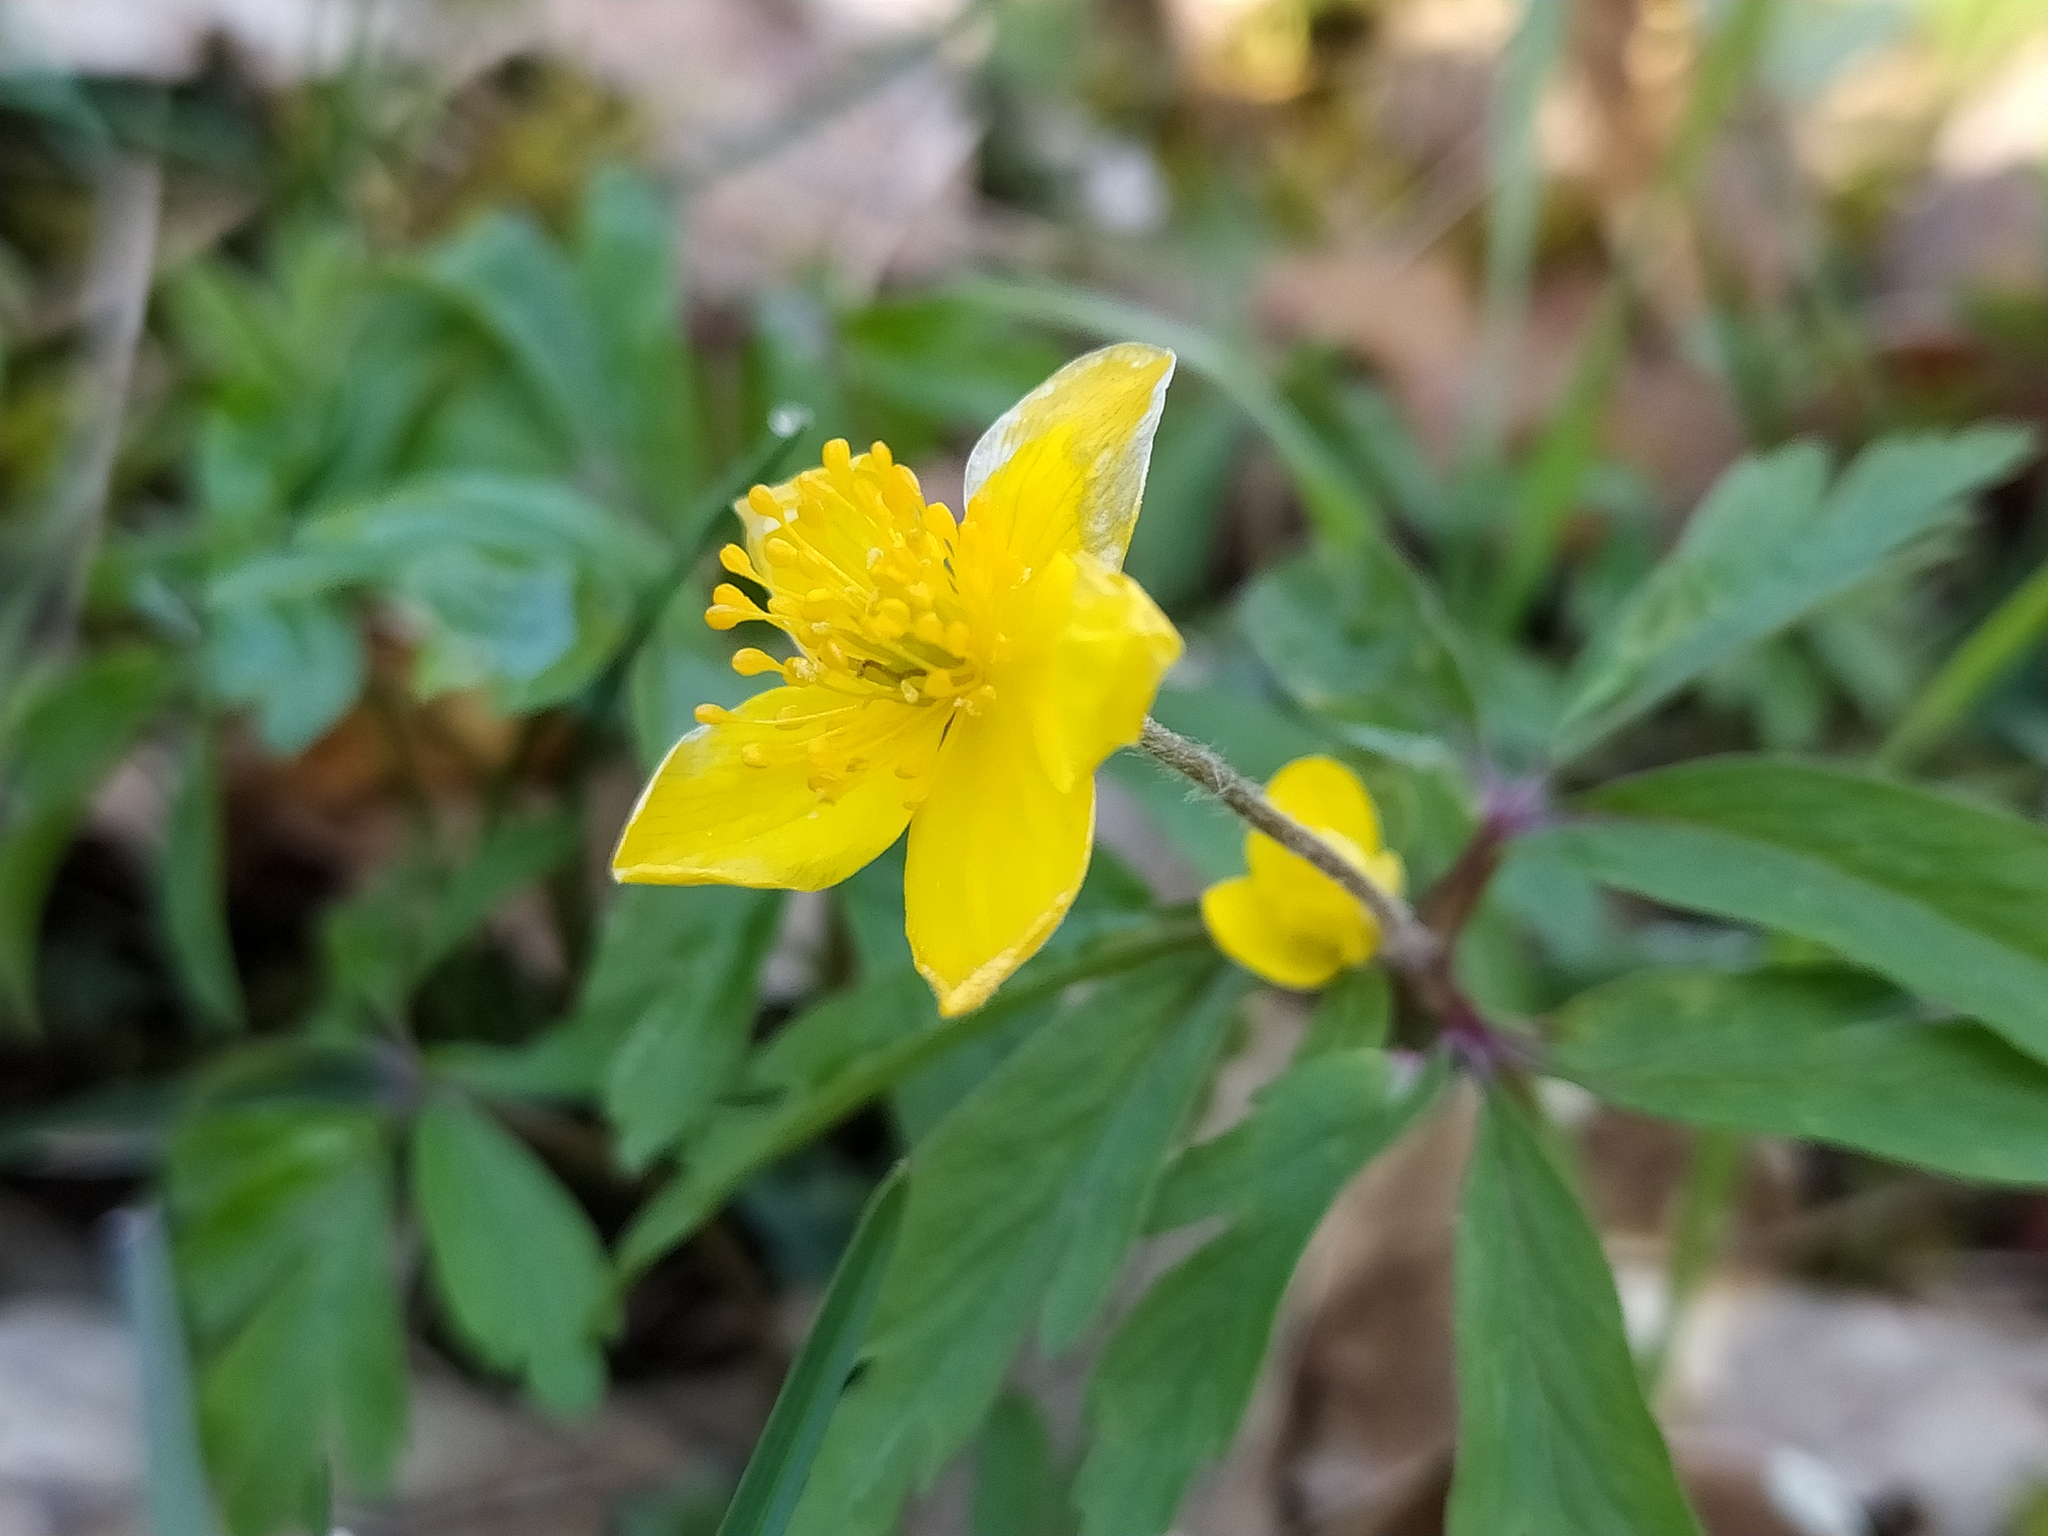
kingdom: Plantae
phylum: Tracheophyta
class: Magnoliopsida
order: Ranunculales
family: Ranunculaceae
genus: Anemone
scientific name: Anemone ranunculoides
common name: Yellow anemone
